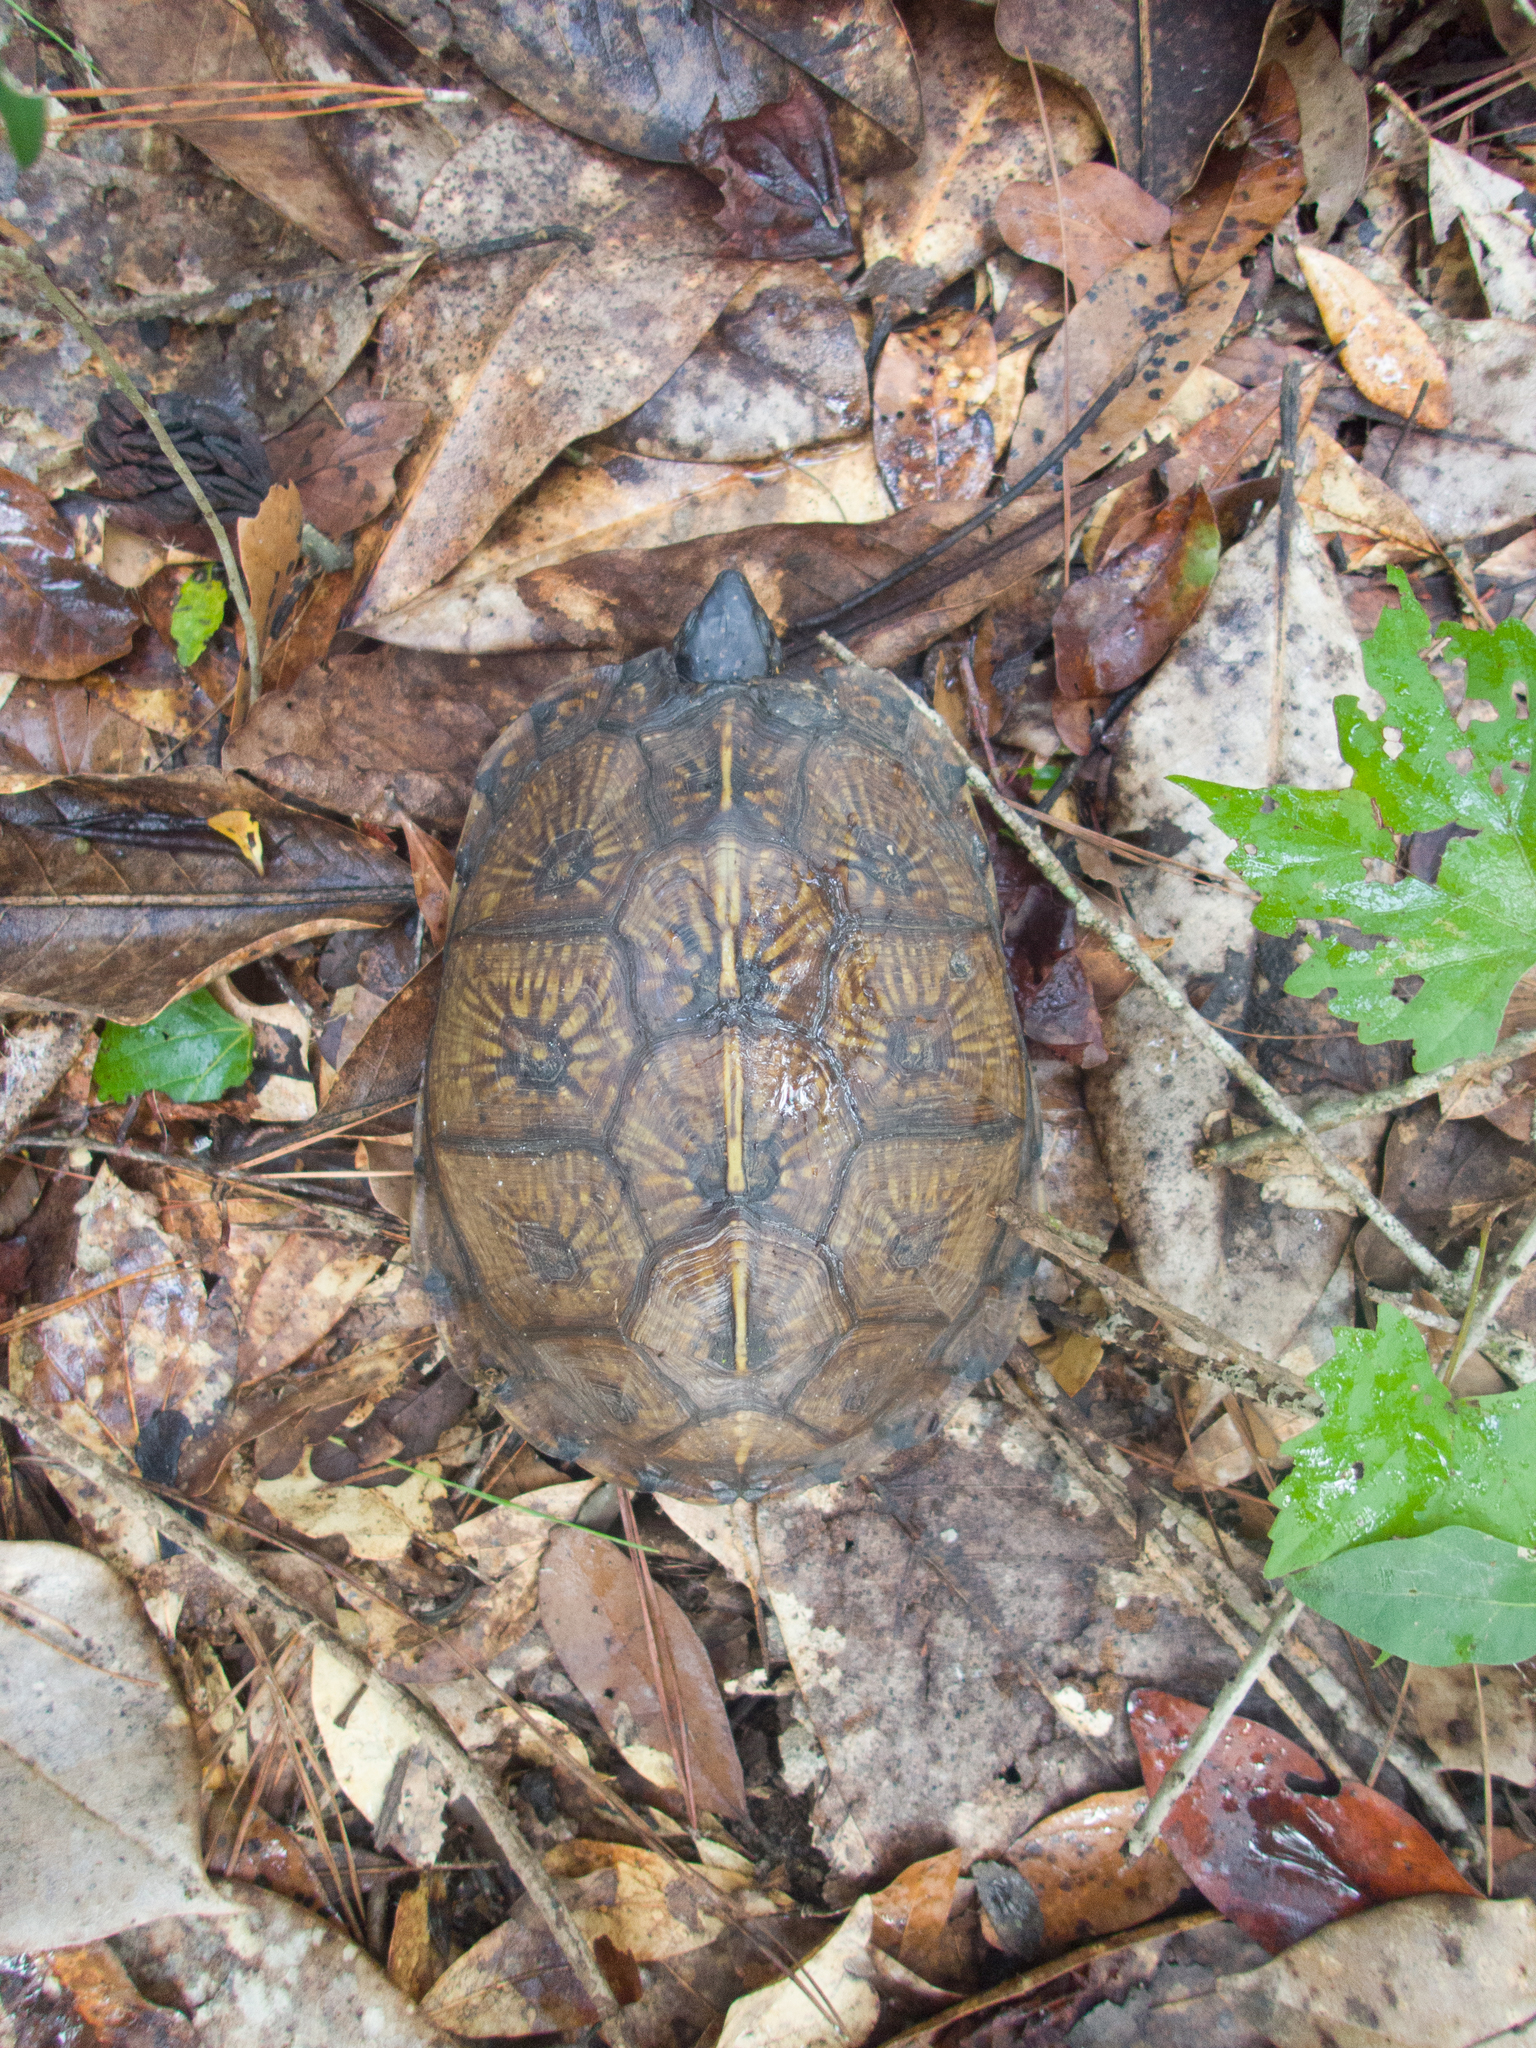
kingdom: Animalia
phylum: Chordata
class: Testudines
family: Emydidae
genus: Terrapene
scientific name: Terrapene carolina
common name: Common box turtle
